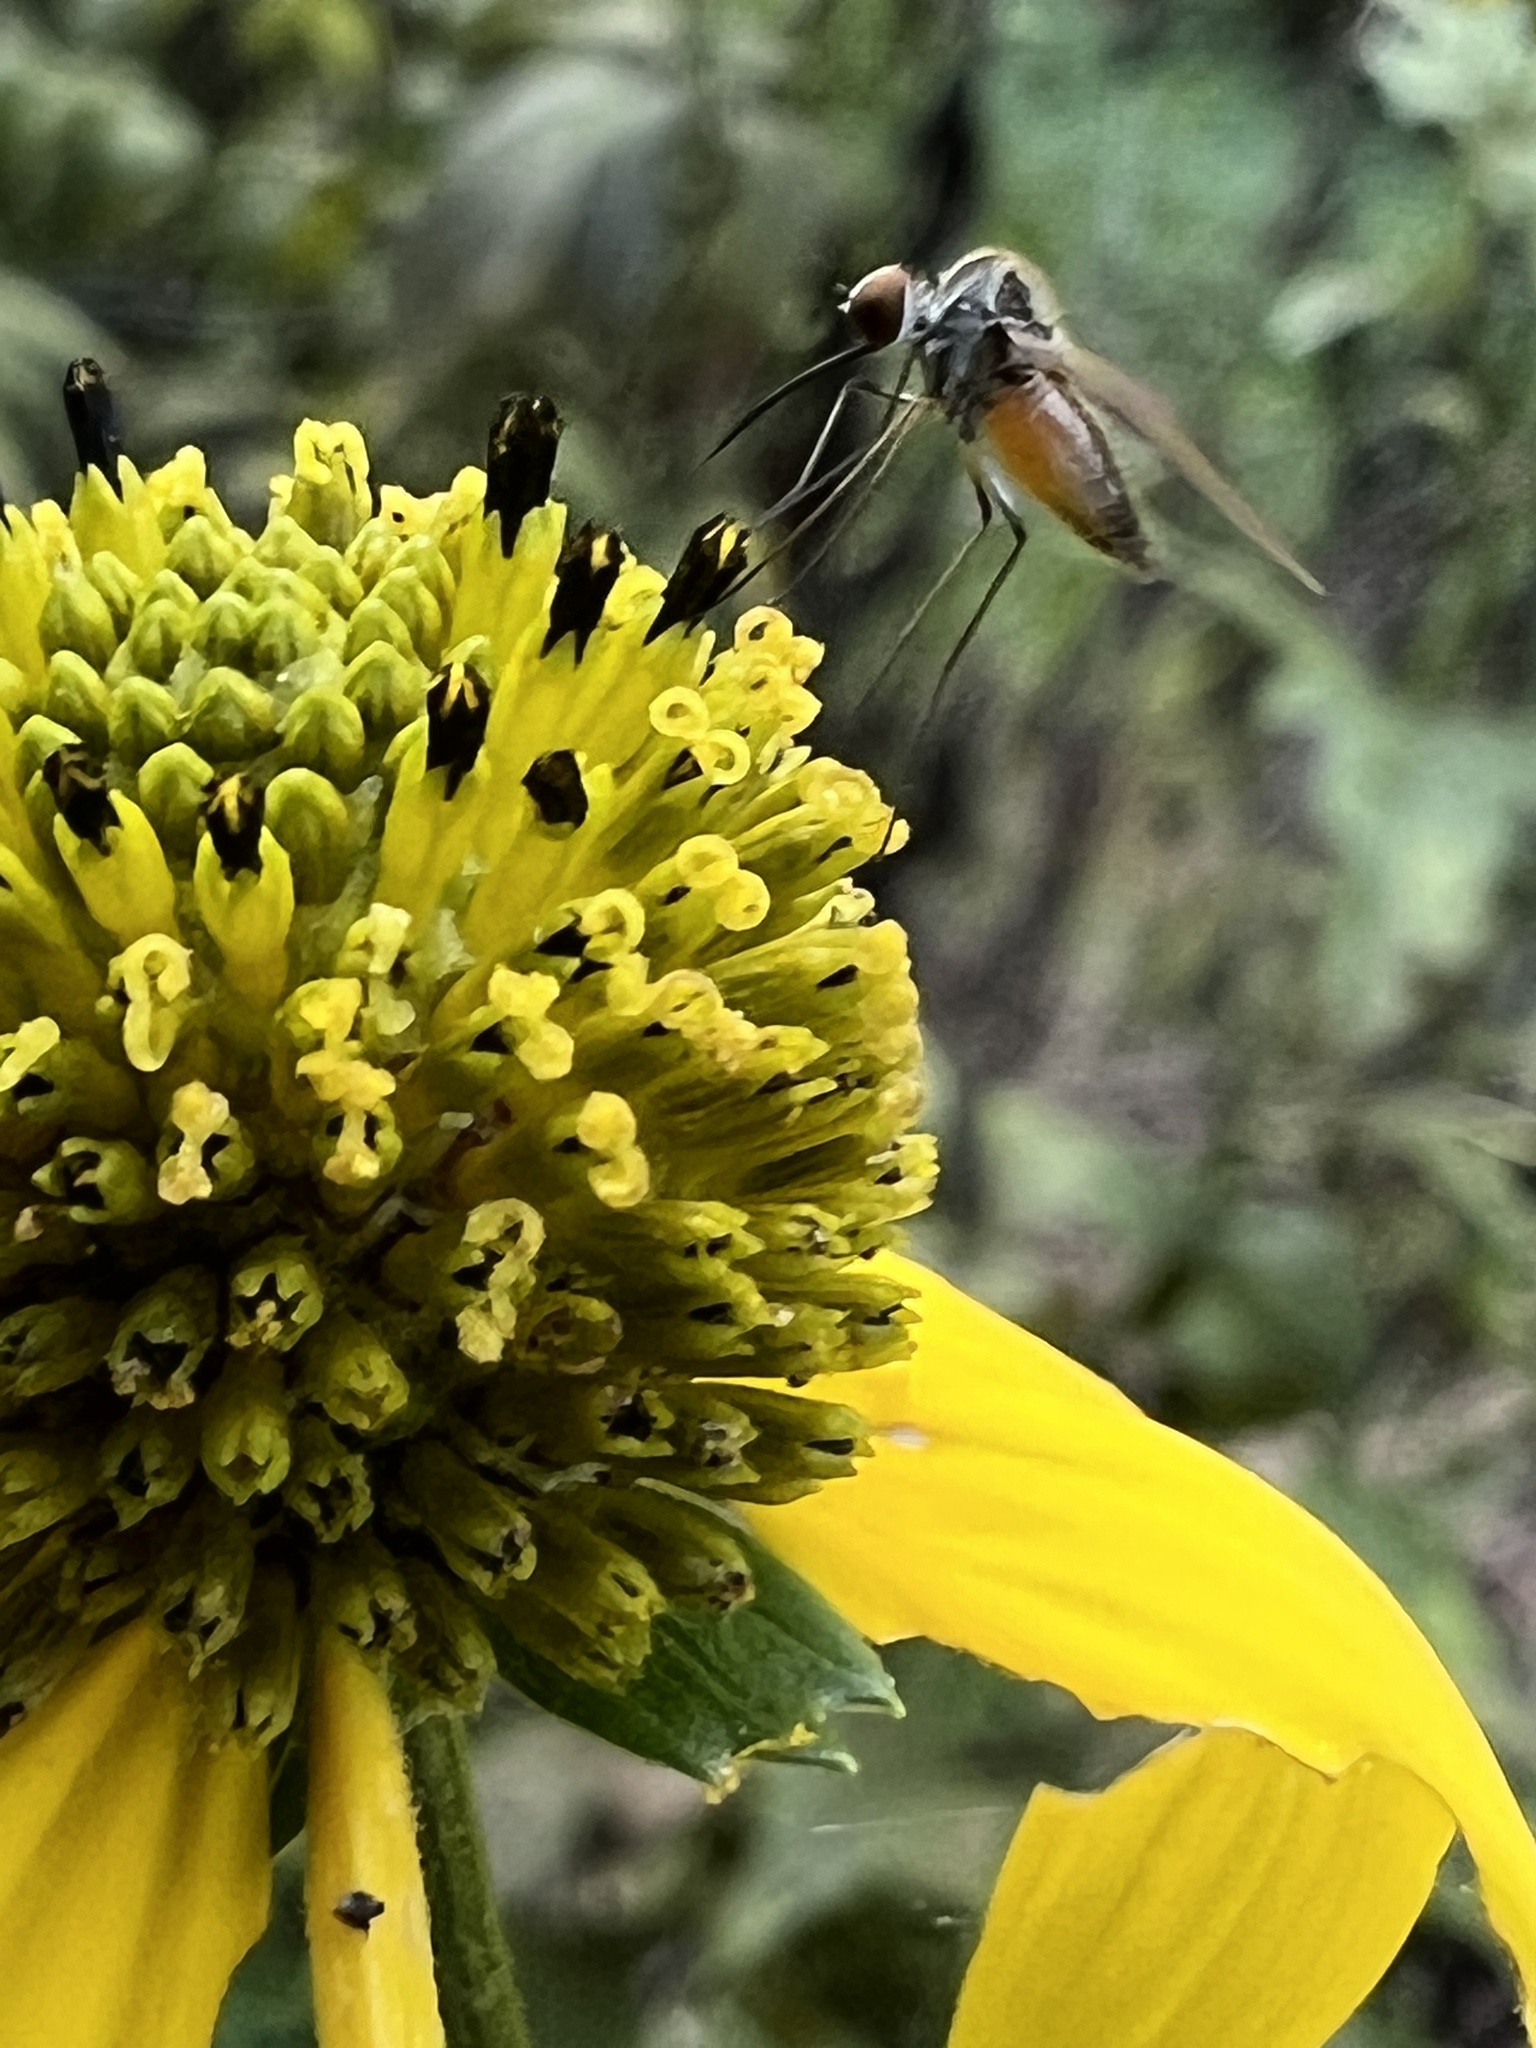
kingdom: Animalia
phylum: Arthropoda
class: Insecta
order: Diptera
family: Bombyliidae
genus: Geron
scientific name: Geron calvus
